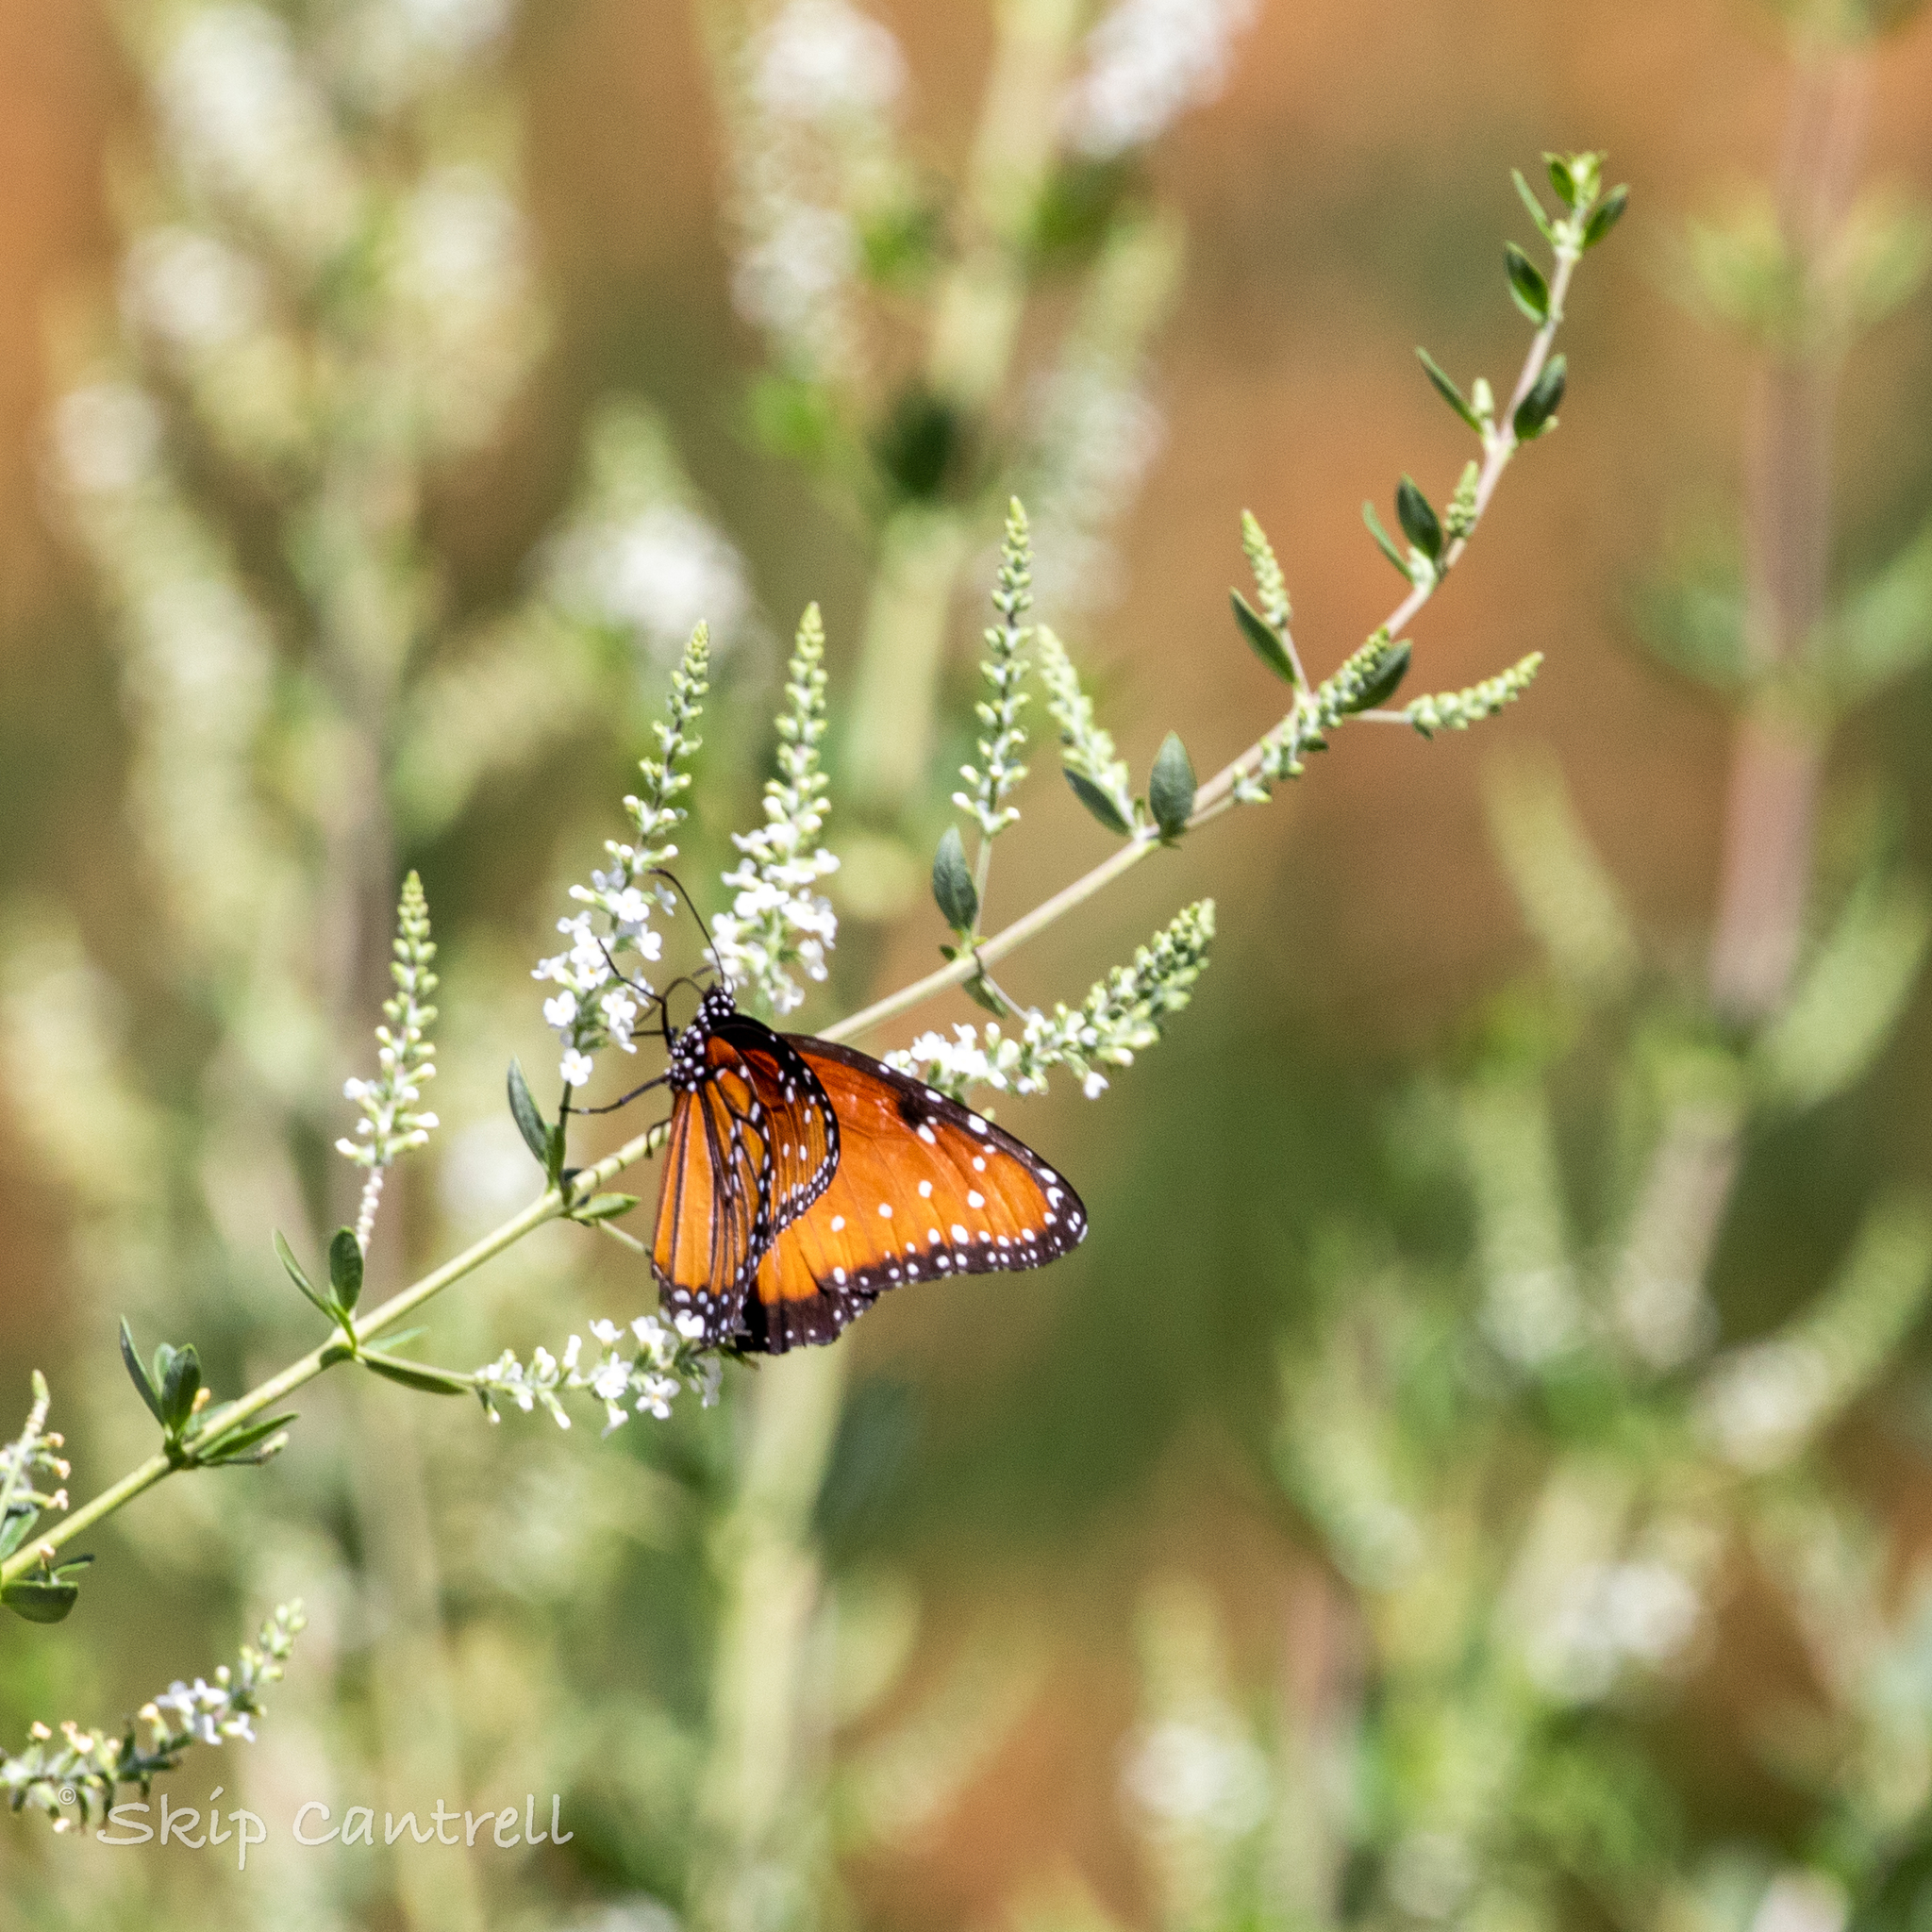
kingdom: Animalia
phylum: Arthropoda
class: Insecta
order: Lepidoptera
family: Nymphalidae
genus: Danaus
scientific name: Danaus gilippus
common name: Queen
